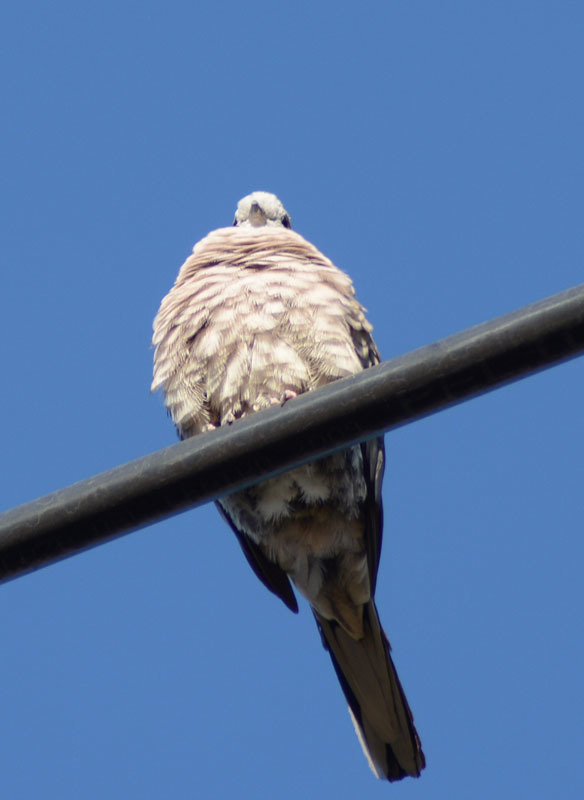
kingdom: Animalia
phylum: Chordata
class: Aves
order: Columbiformes
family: Columbidae
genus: Columbina
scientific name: Columbina inca
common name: Inca dove
